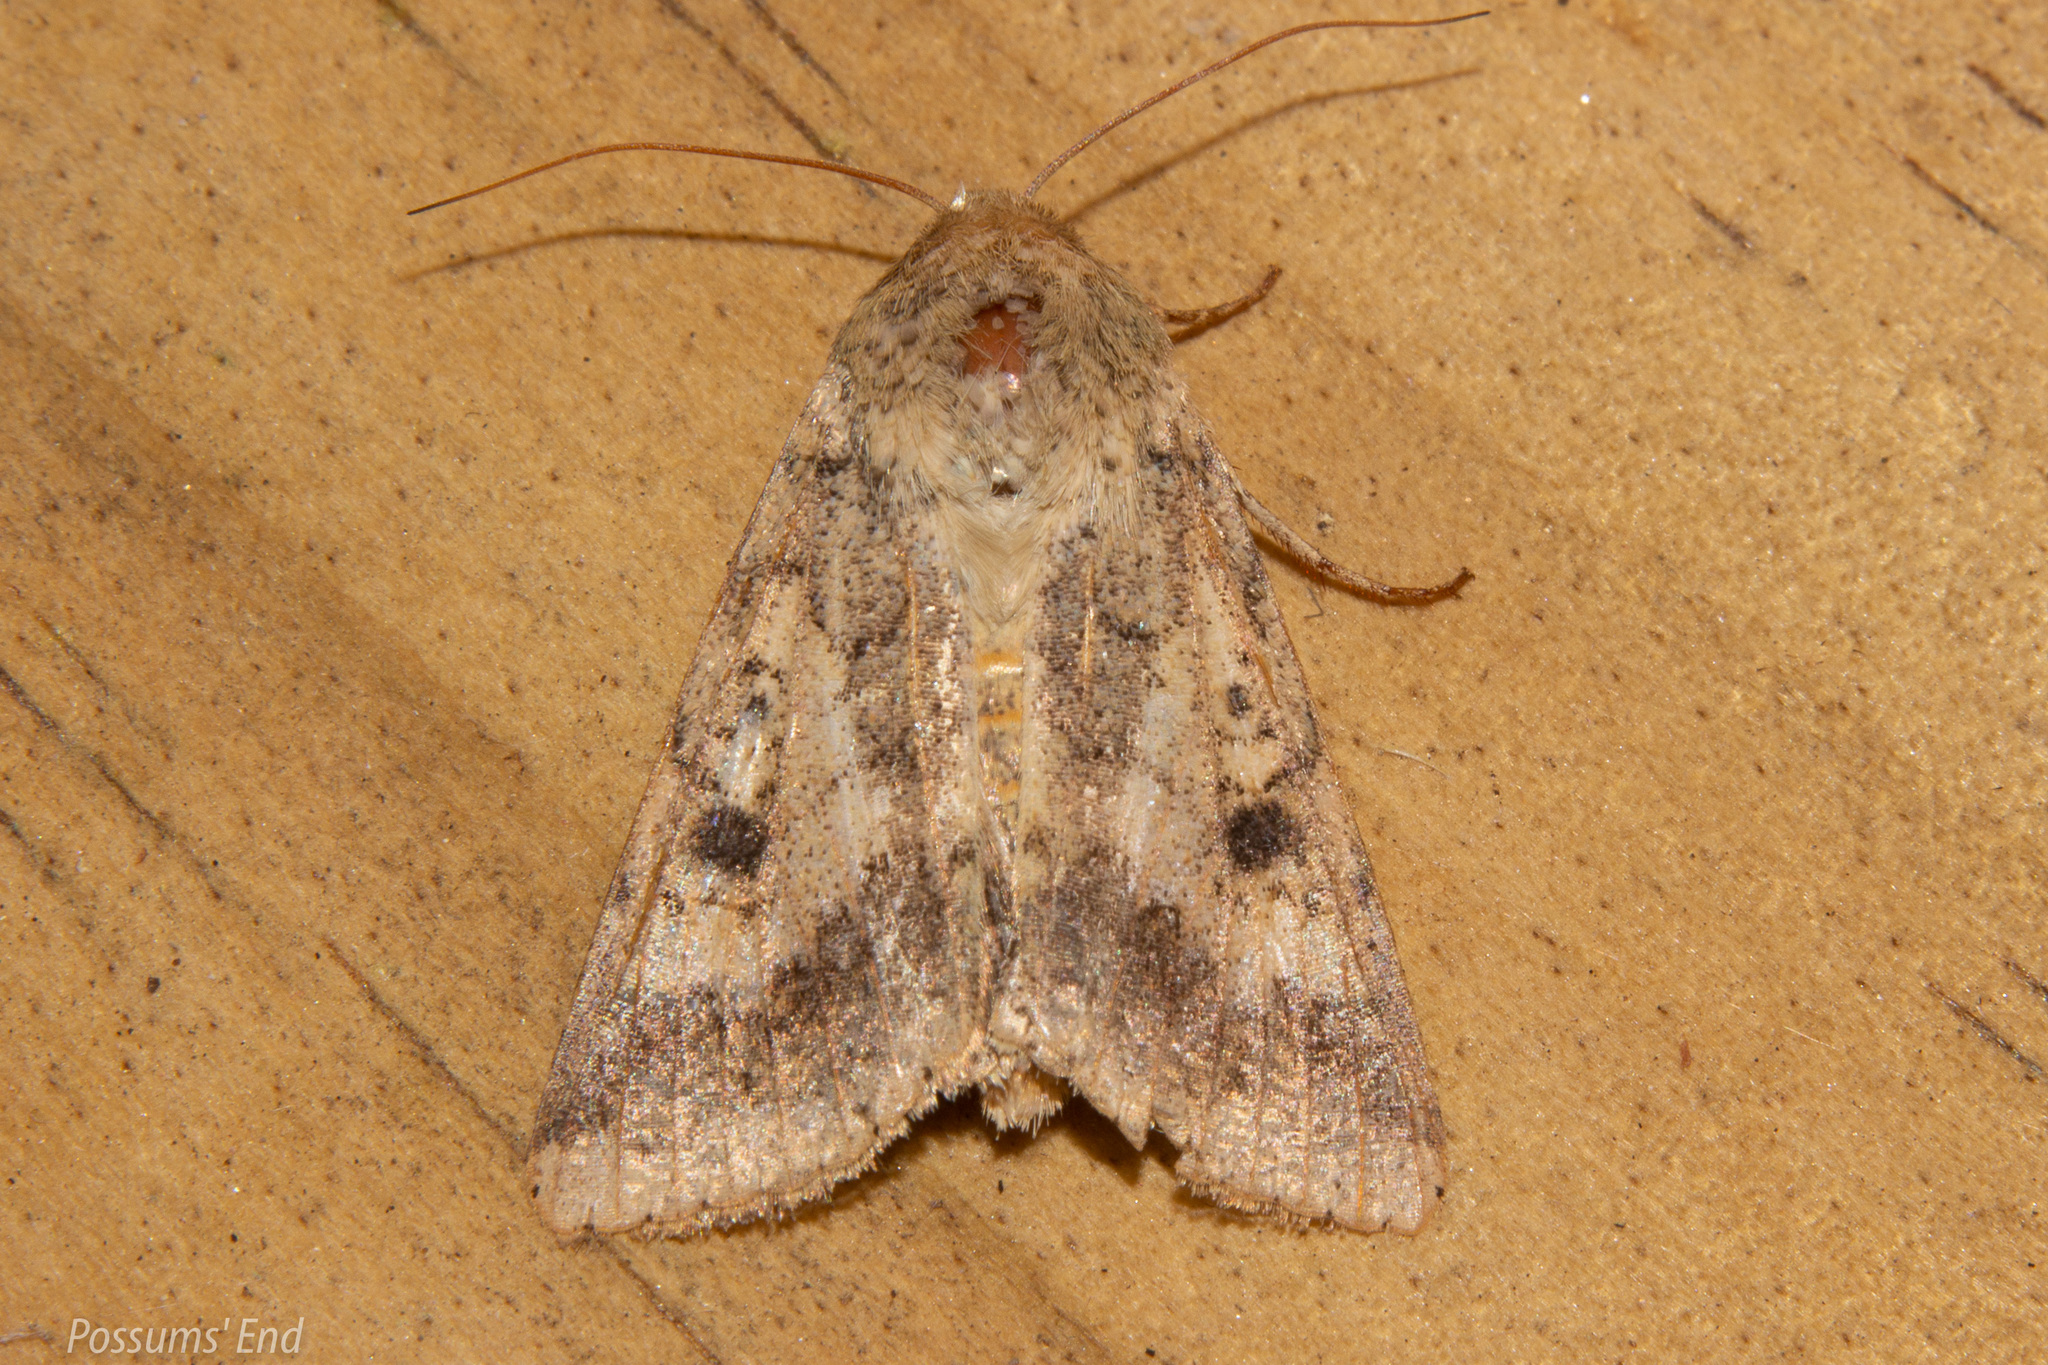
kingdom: Animalia
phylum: Arthropoda
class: Insecta
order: Lepidoptera
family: Noctuidae
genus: Helicoverpa
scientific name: Helicoverpa armigera
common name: Cotton bollworm
